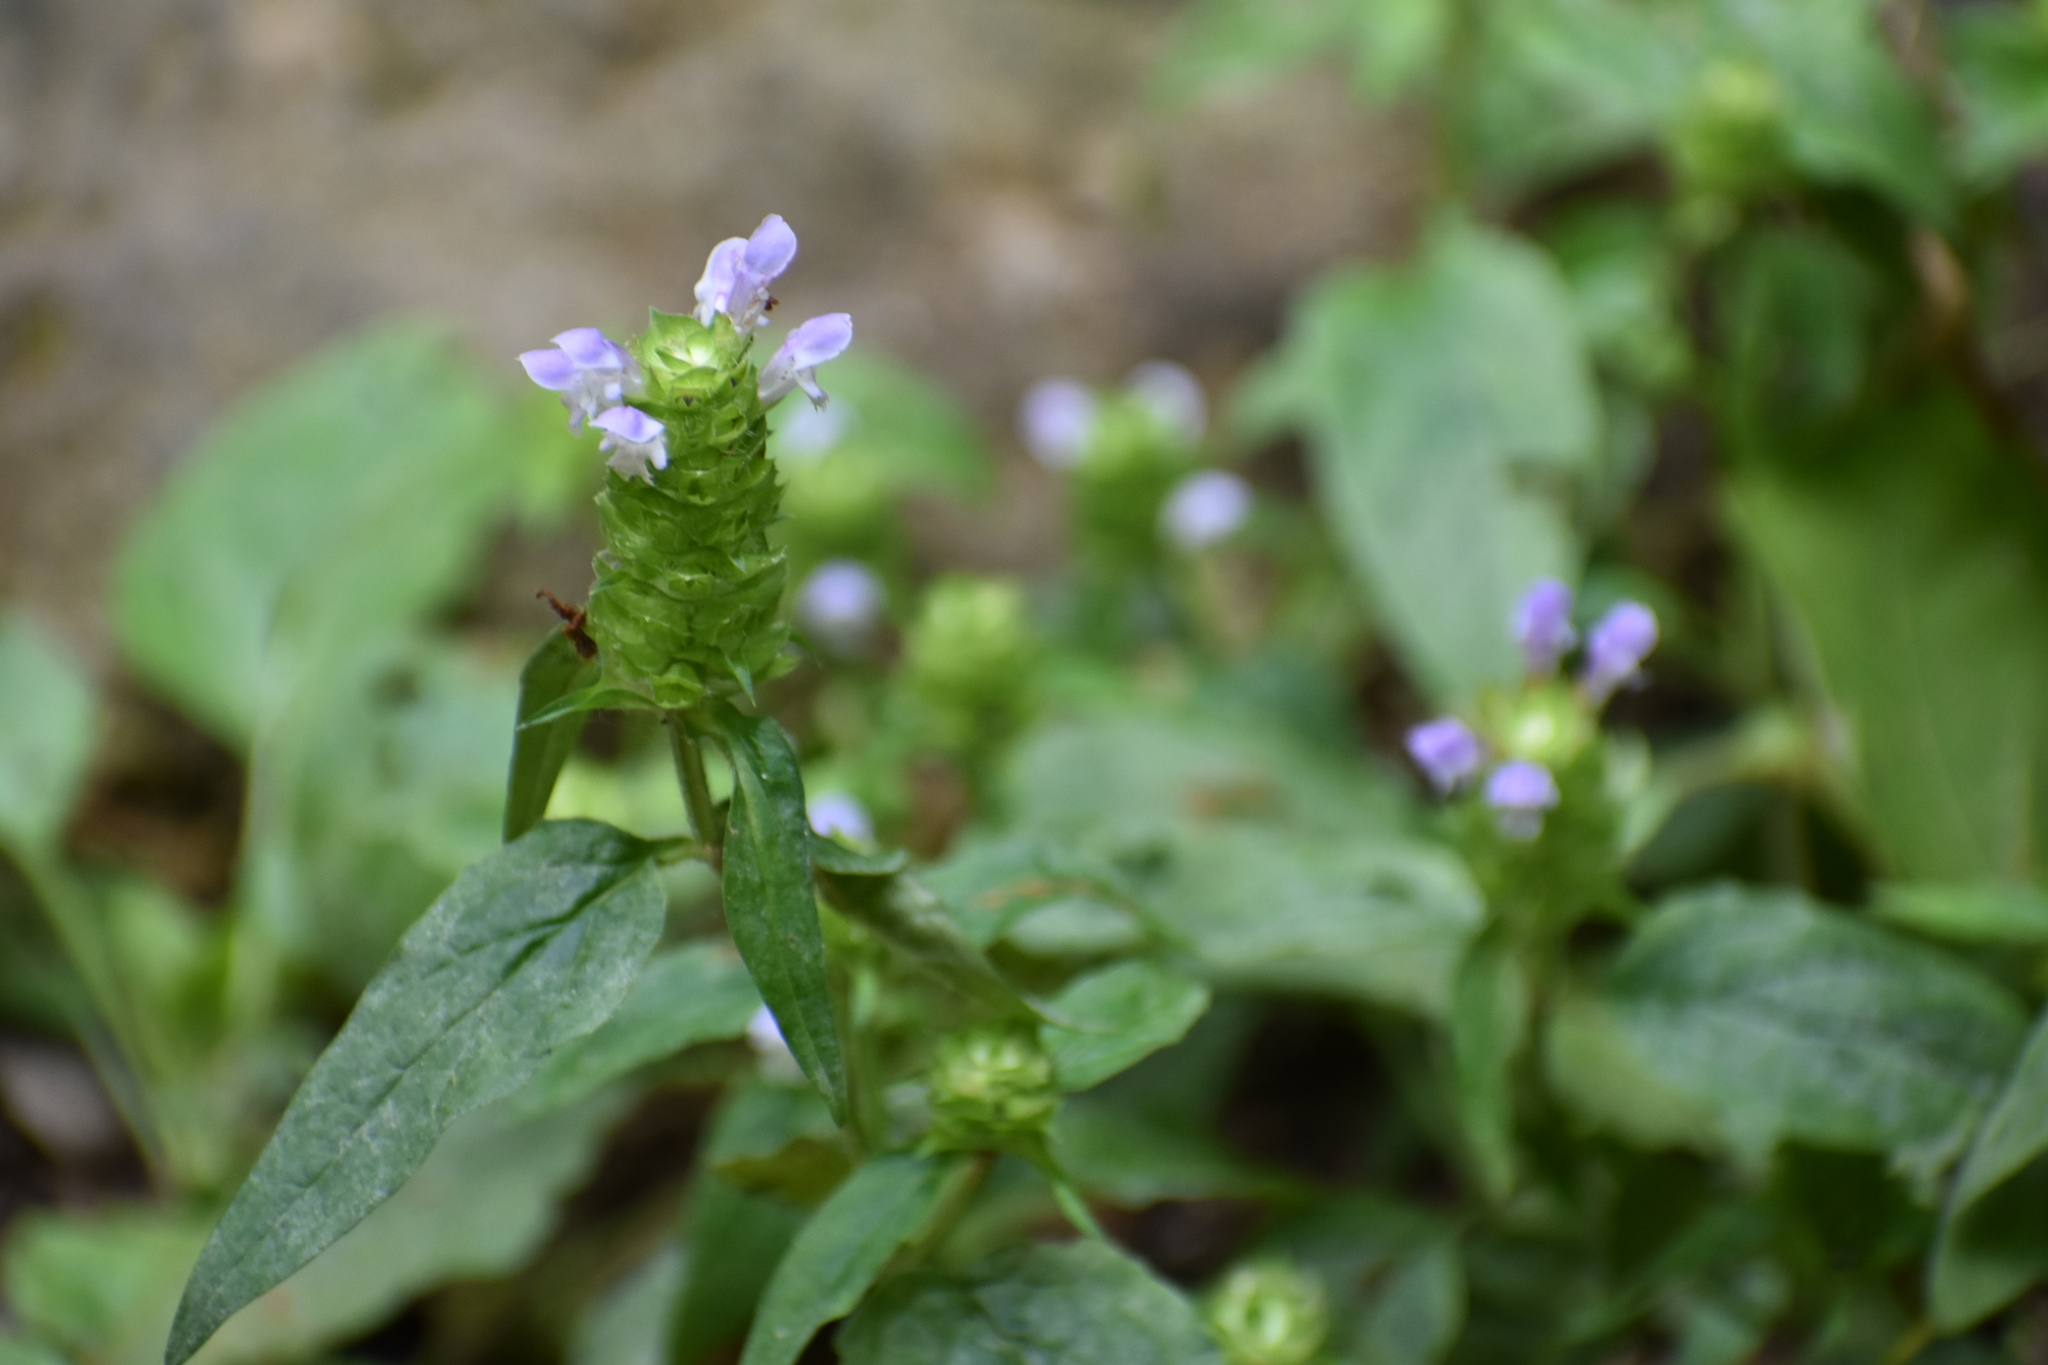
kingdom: Plantae
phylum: Tracheophyta
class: Magnoliopsida
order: Lamiales
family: Lamiaceae
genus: Prunella
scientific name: Prunella vulgaris
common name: Heal-all
